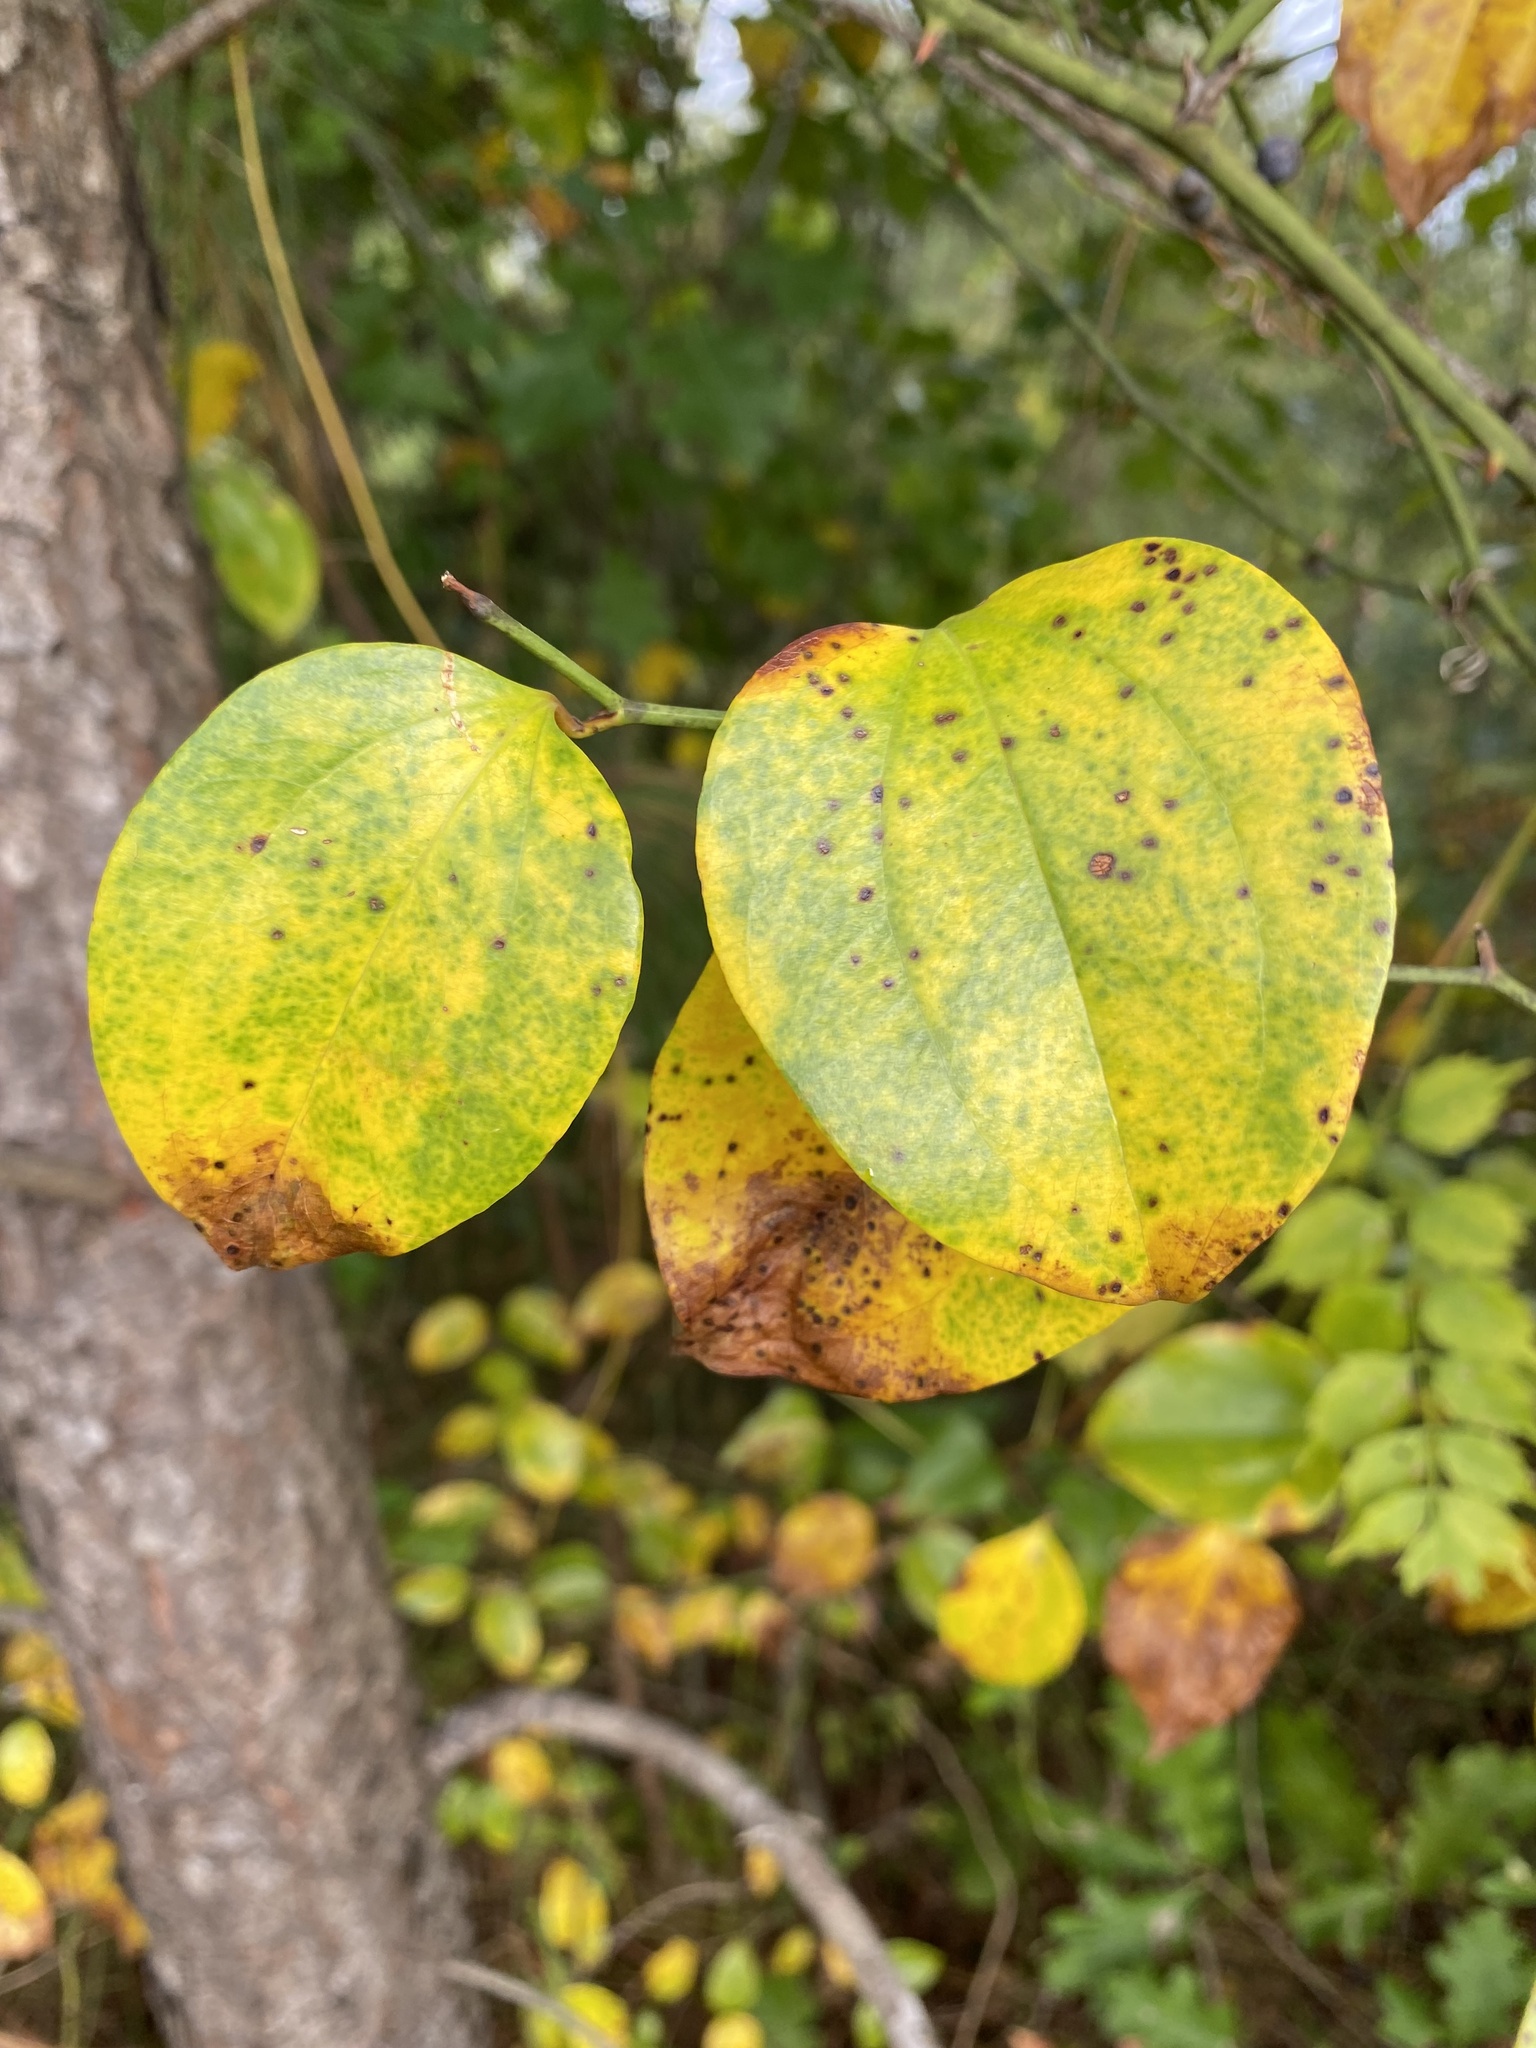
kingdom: Plantae
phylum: Tracheophyta
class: Liliopsida
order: Liliales
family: Smilacaceae
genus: Smilax
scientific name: Smilax rotundifolia
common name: Bullbriar
